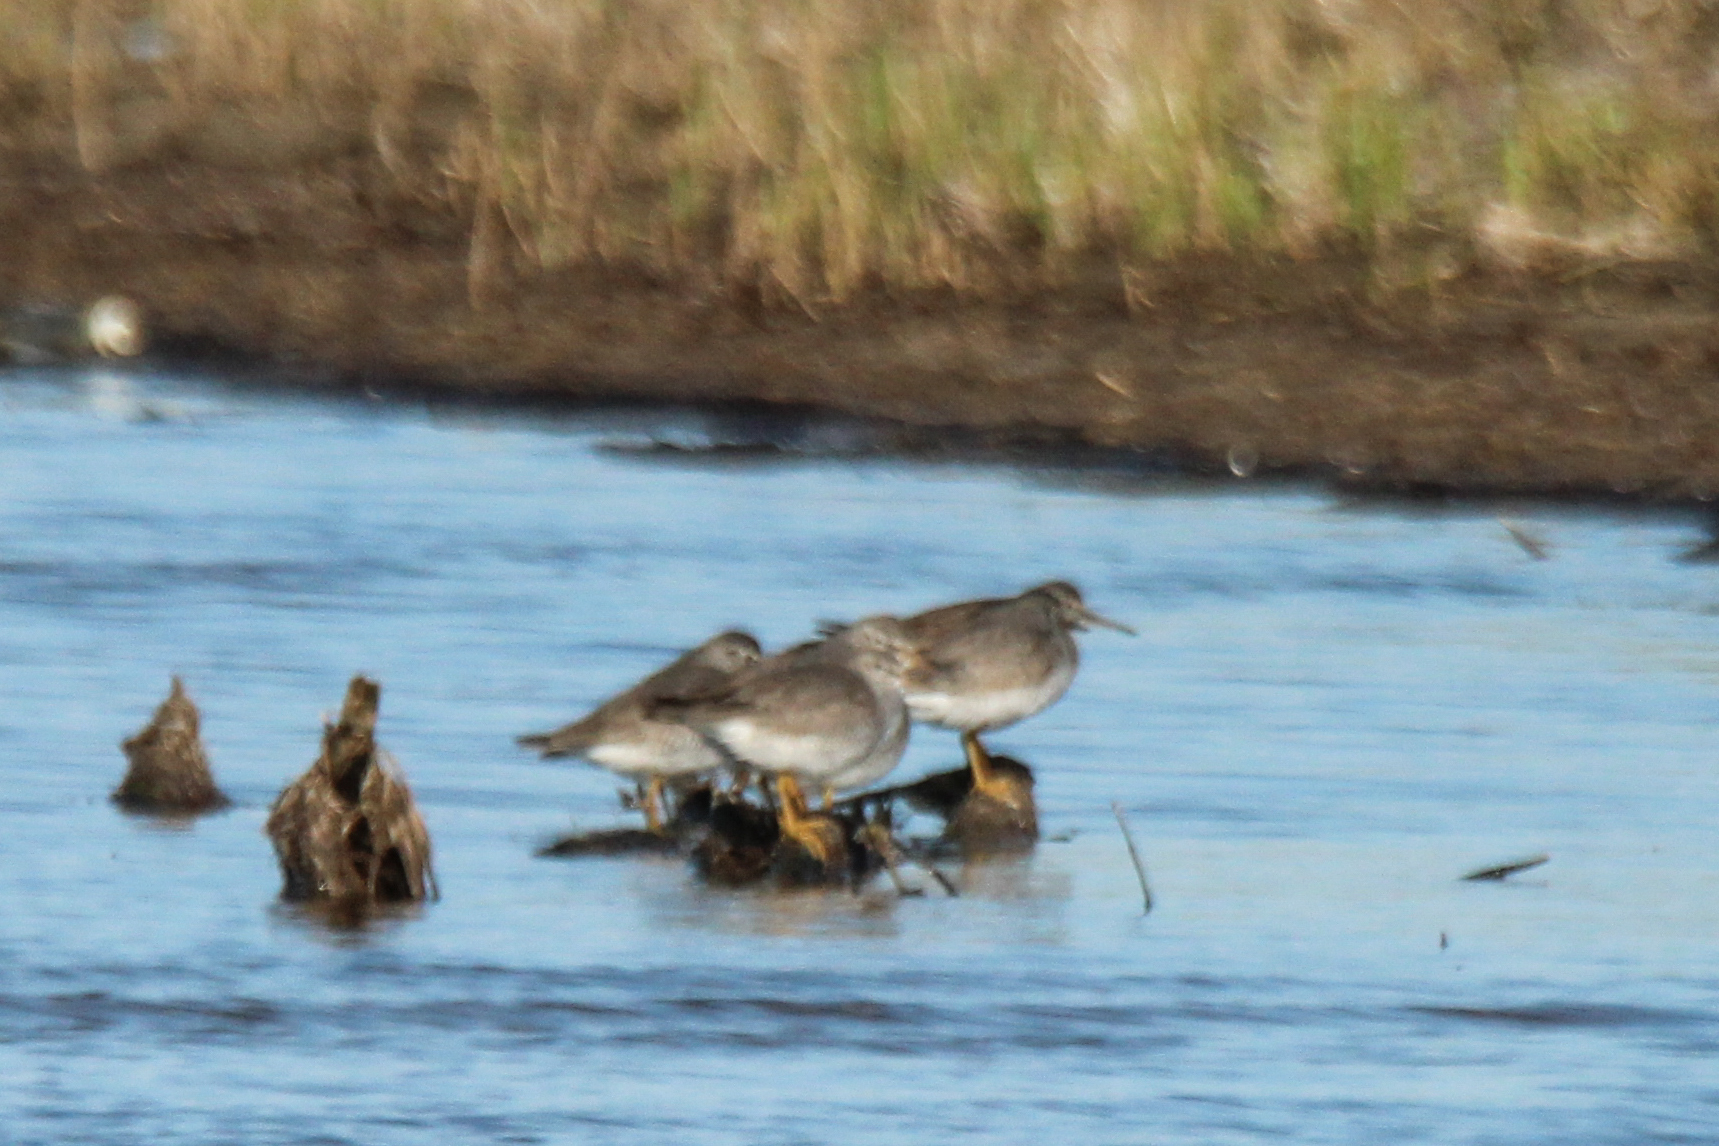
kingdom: Animalia
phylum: Chordata
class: Aves
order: Charadriiformes
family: Scolopacidae
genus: Tringa
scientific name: Tringa brevipes
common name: Grey-tailed tattler
